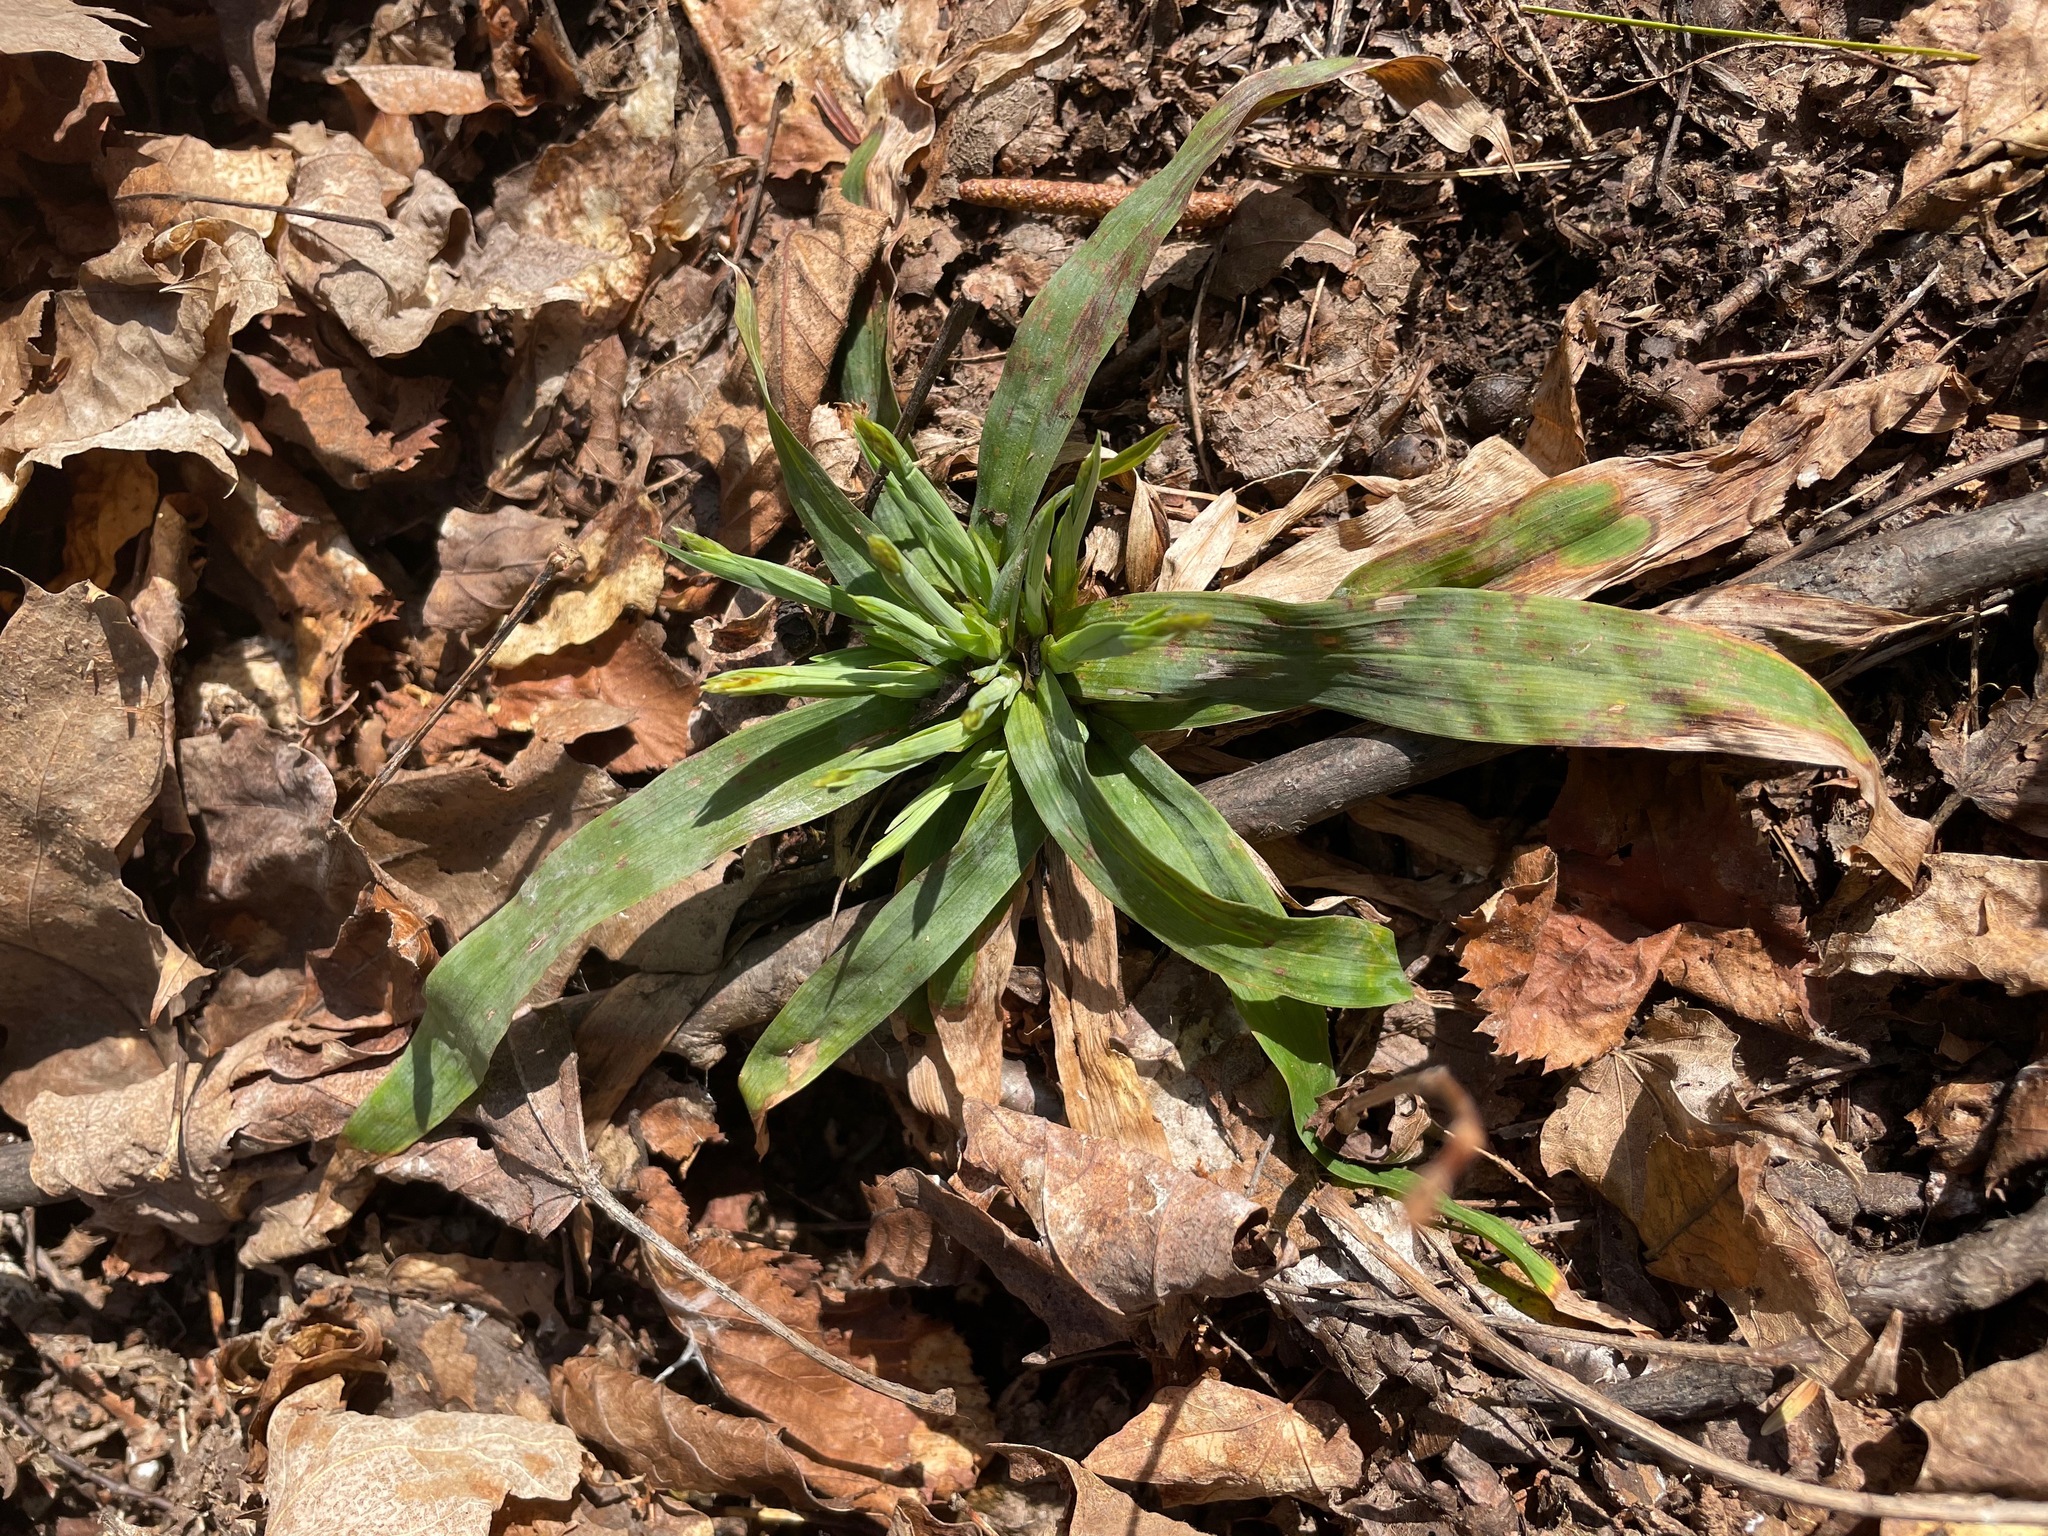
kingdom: Plantae
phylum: Tracheophyta
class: Liliopsida
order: Poales
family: Cyperaceae
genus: Carex
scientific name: Carex platyphylla
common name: Broad-leaved sedge
